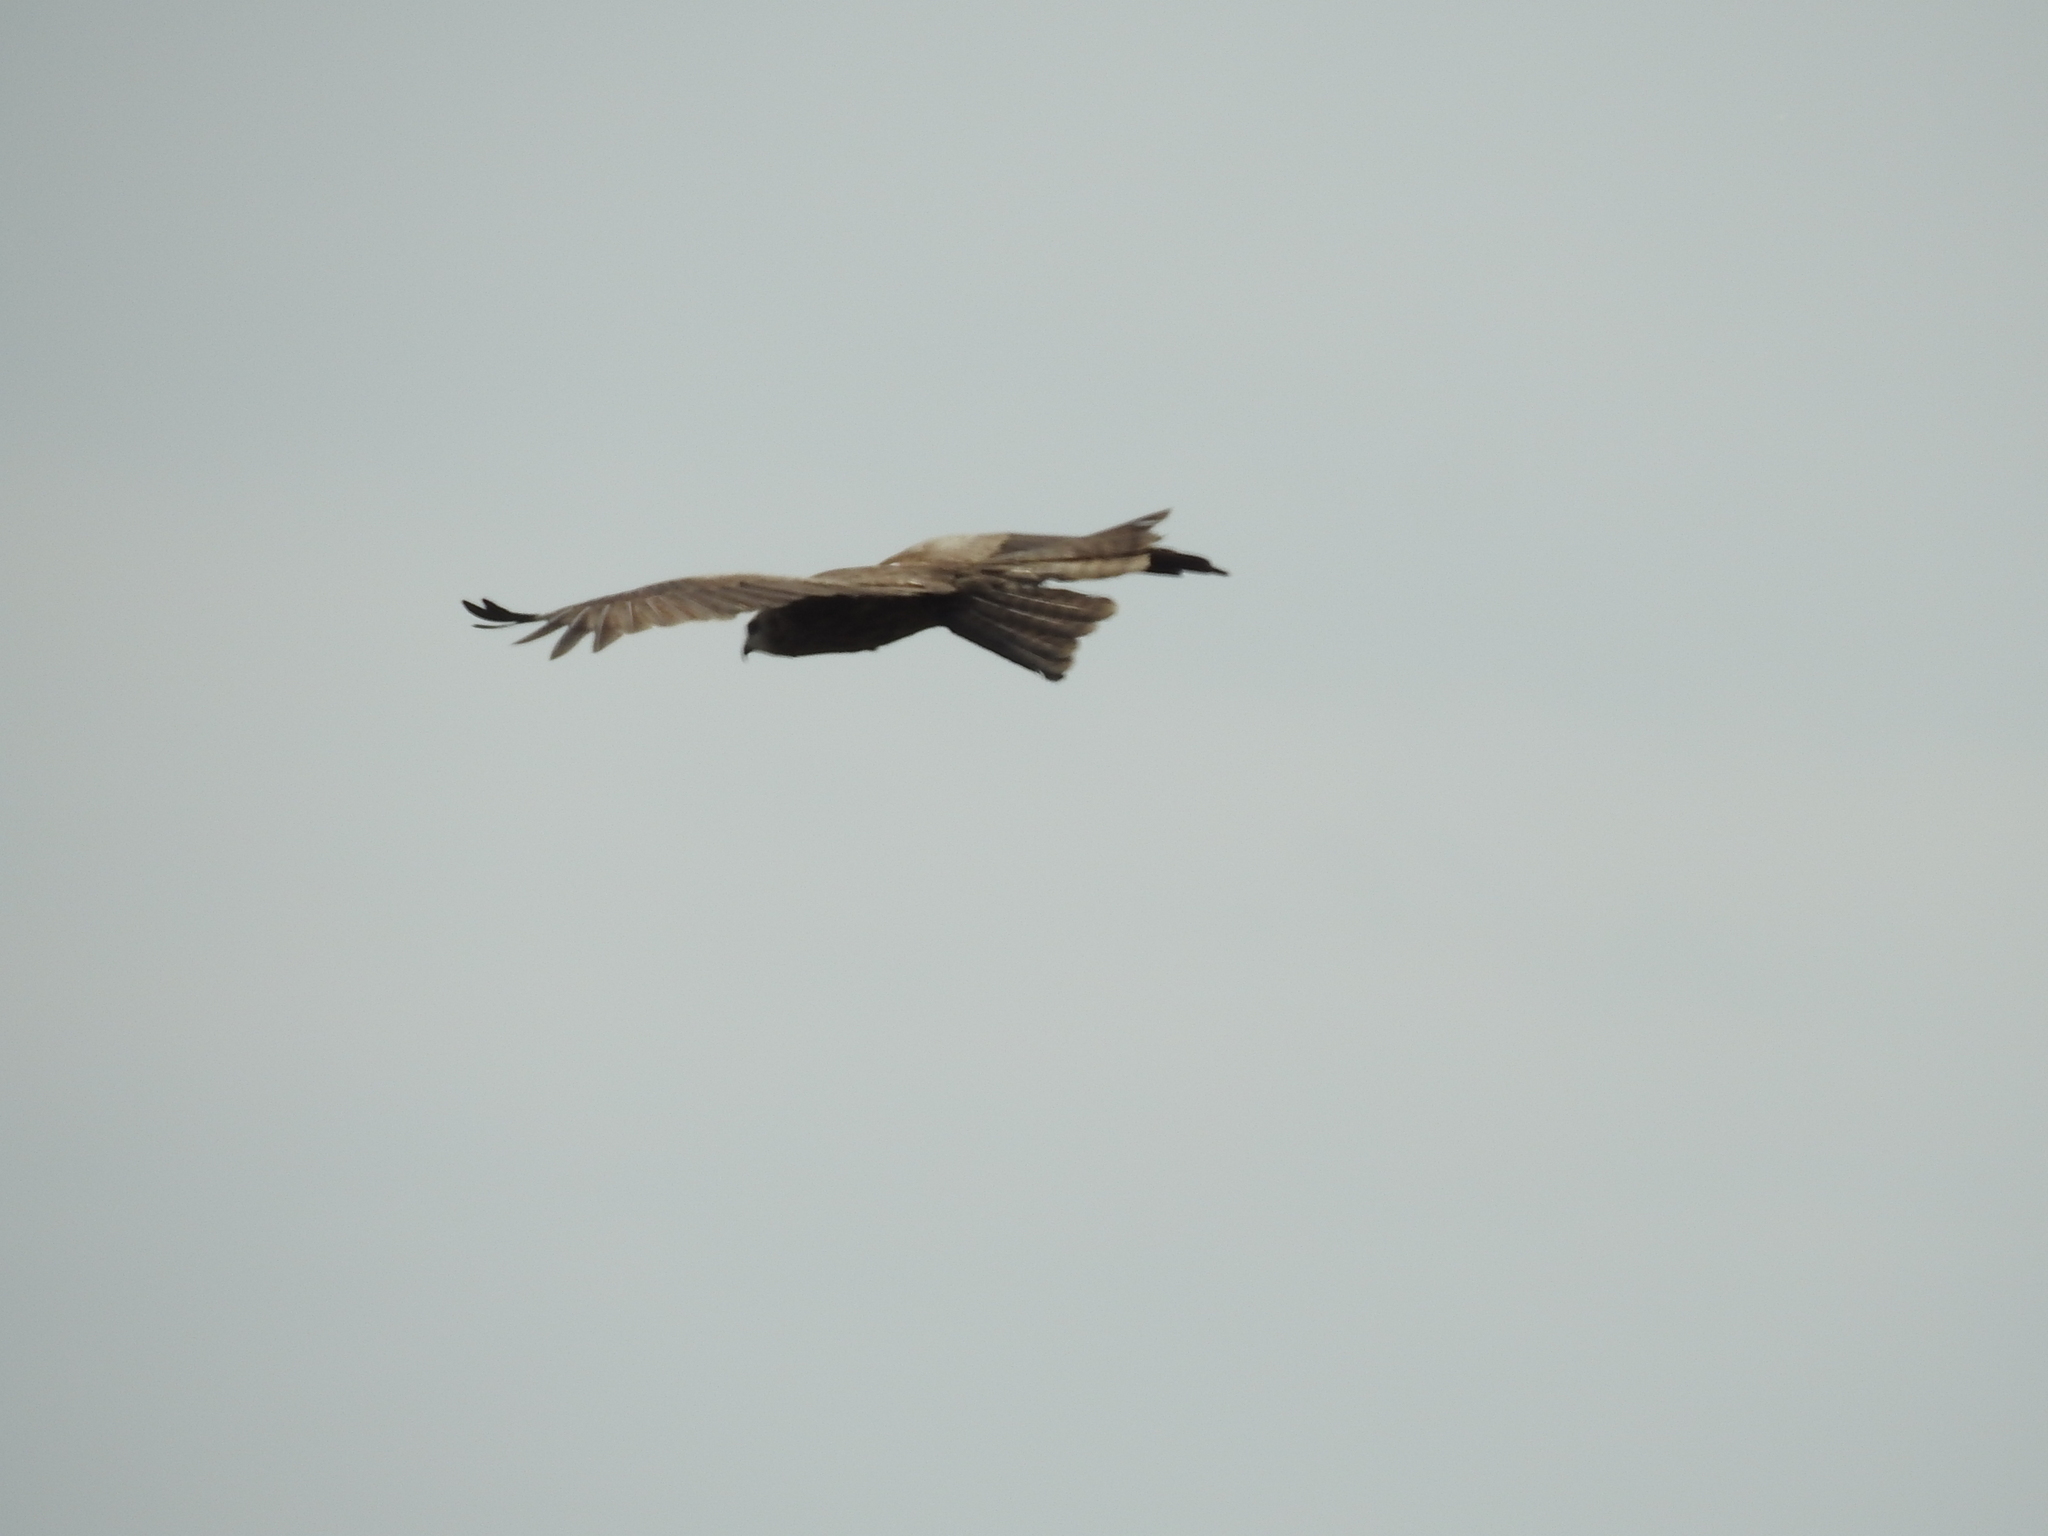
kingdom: Animalia
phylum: Chordata
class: Aves
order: Accipitriformes
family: Accipitridae
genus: Milvus
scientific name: Milvus migrans
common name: Black kite
